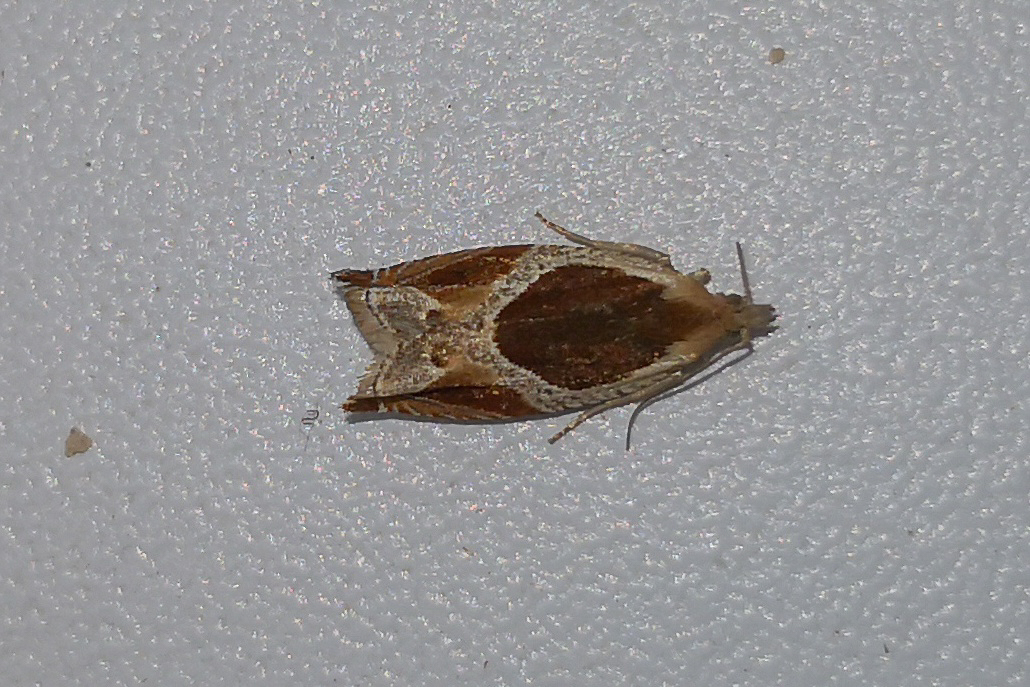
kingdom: Animalia
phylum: Arthropoda
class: Insecta
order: Lepidoptera
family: Tortricidae
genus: Ancylis
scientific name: Ancylis unculana
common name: Buckthorn roller
